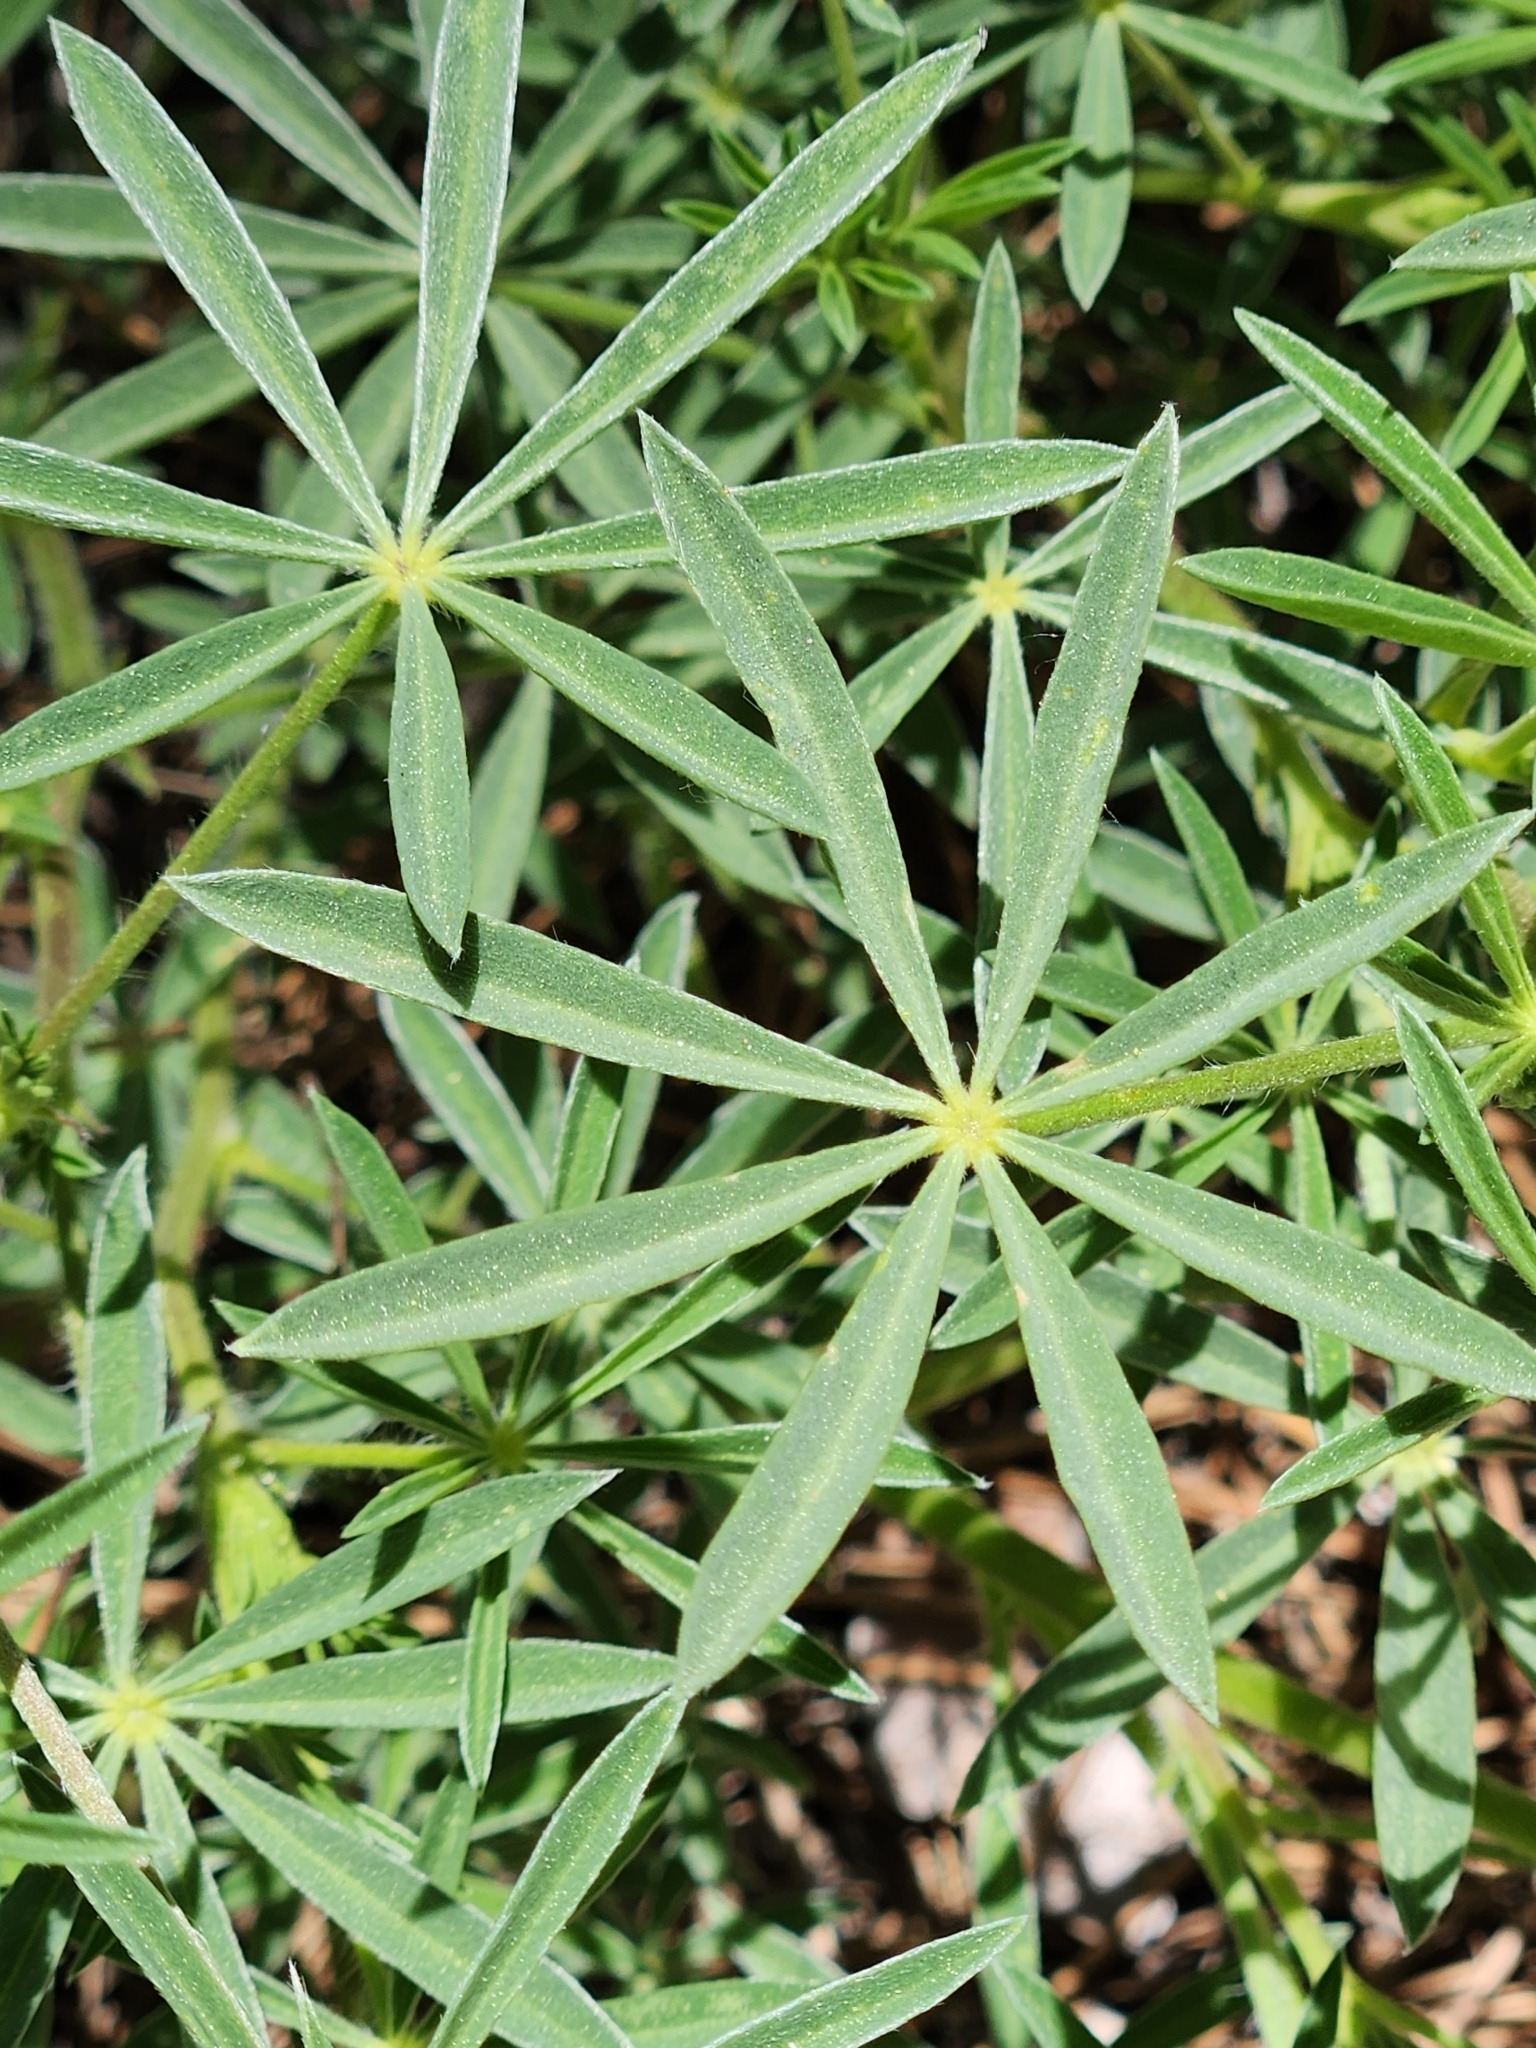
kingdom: Plantae
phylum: Tracheophyta
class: Magnoliopsida
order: Fabales
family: Fabaceae
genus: Lupinus
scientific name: Lupinus hyacinthinus
